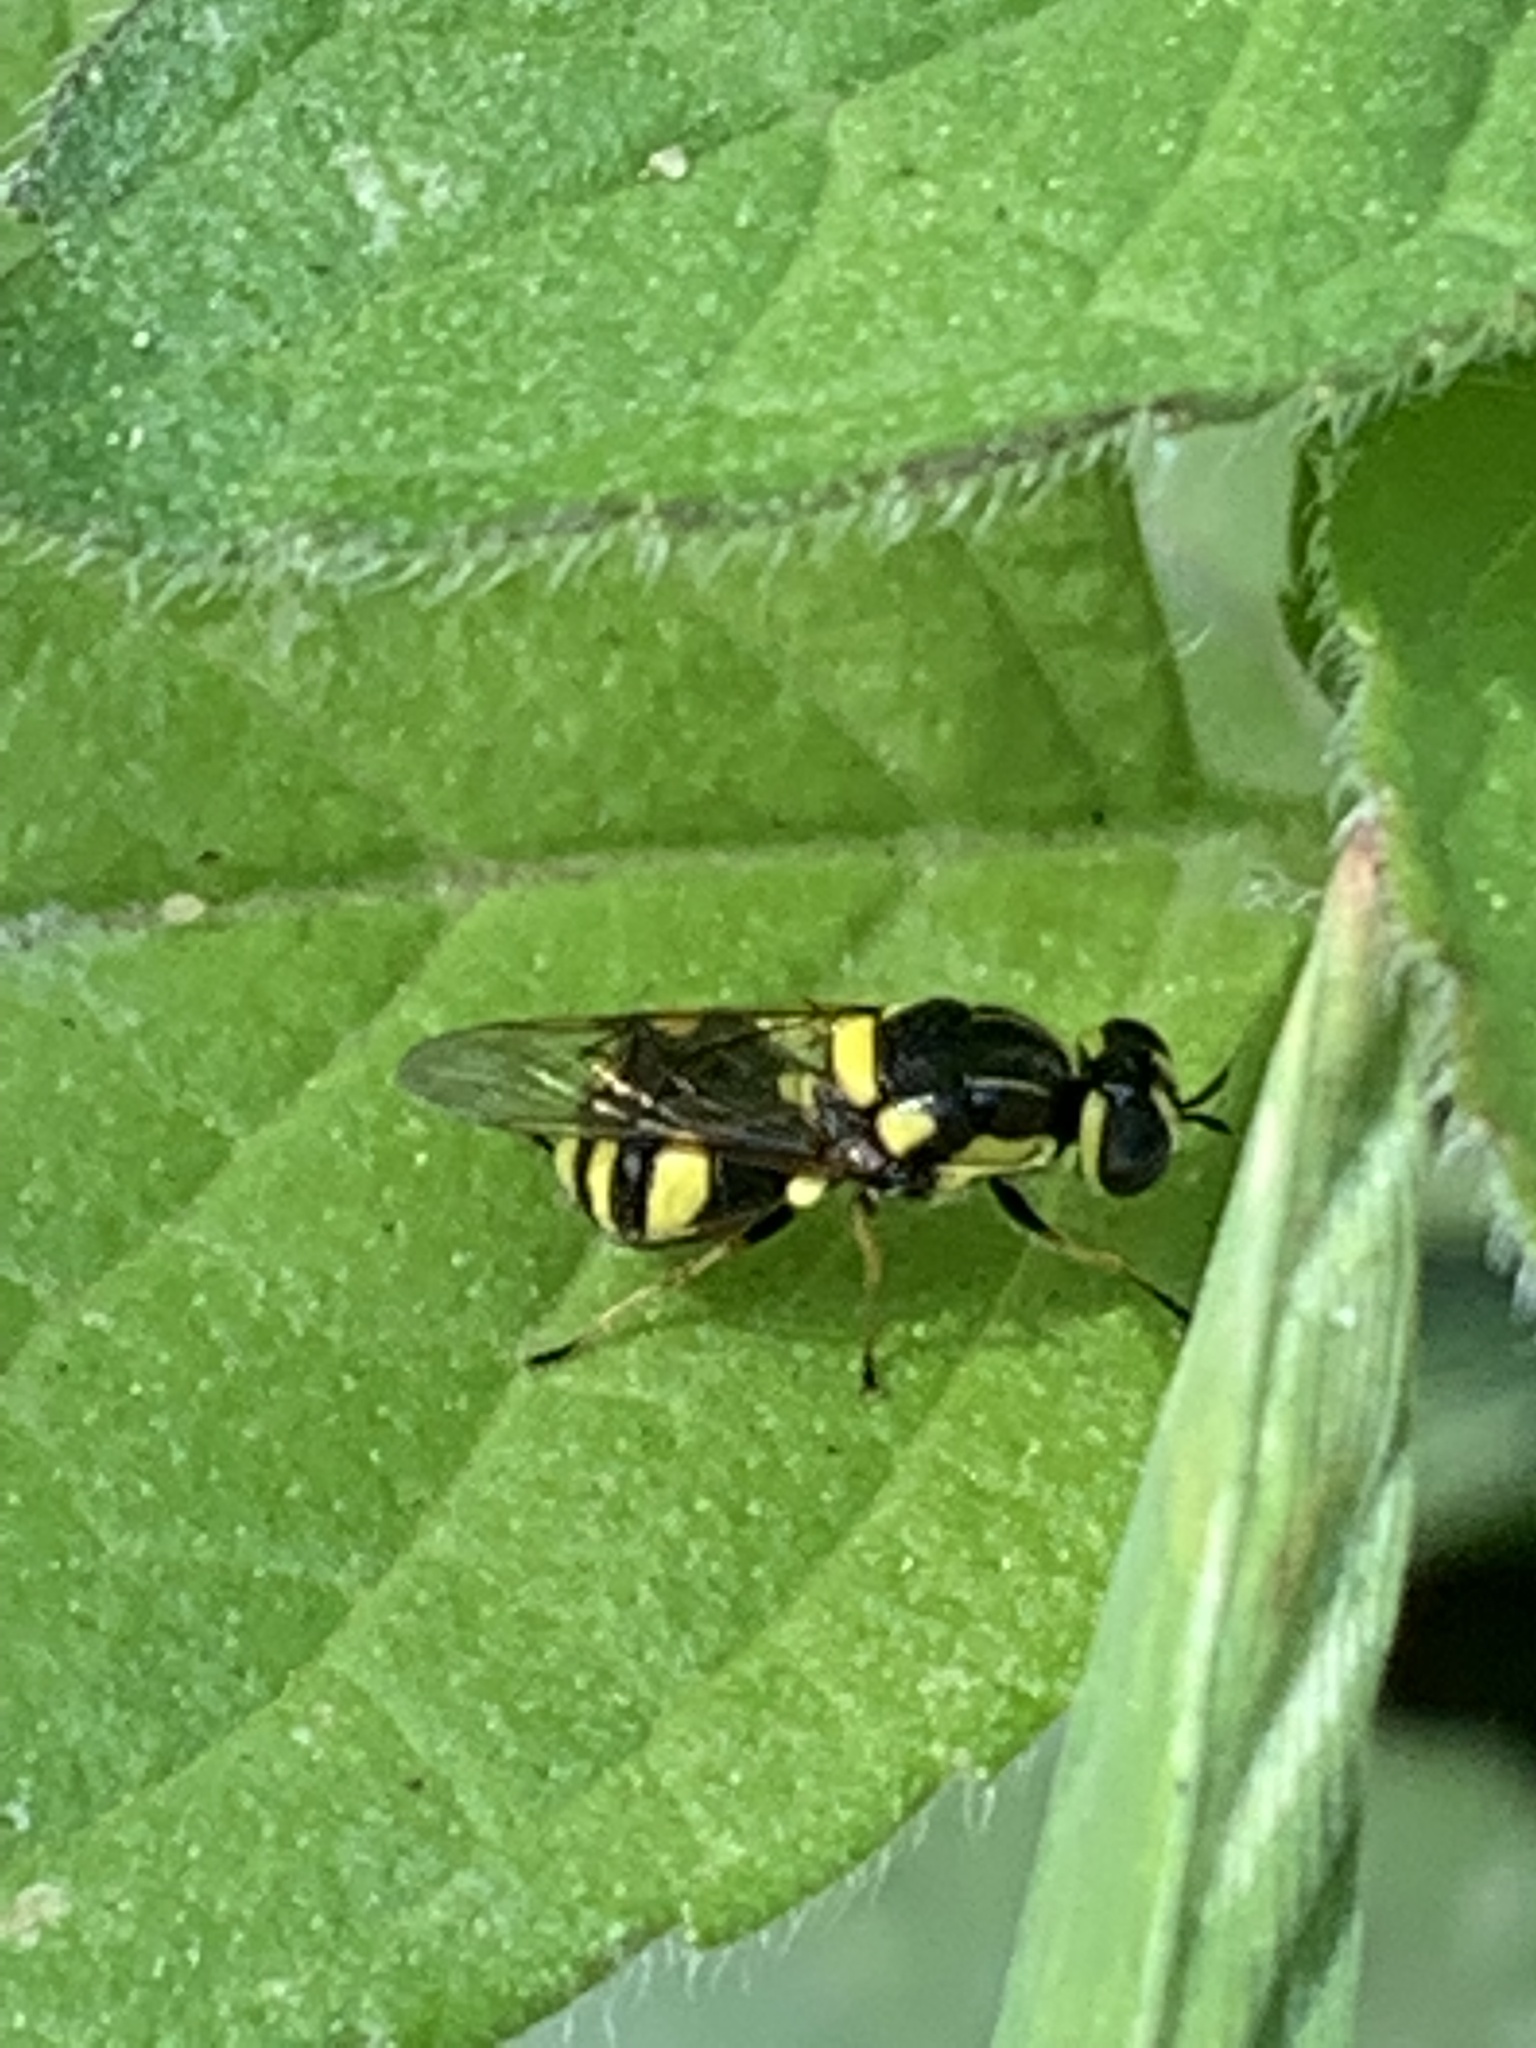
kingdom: Animalia
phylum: Arthropoda
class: Insecta
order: Diptera
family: Stratiomyidae
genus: Oxycera
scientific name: Oxycera rara
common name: Four-barred major
